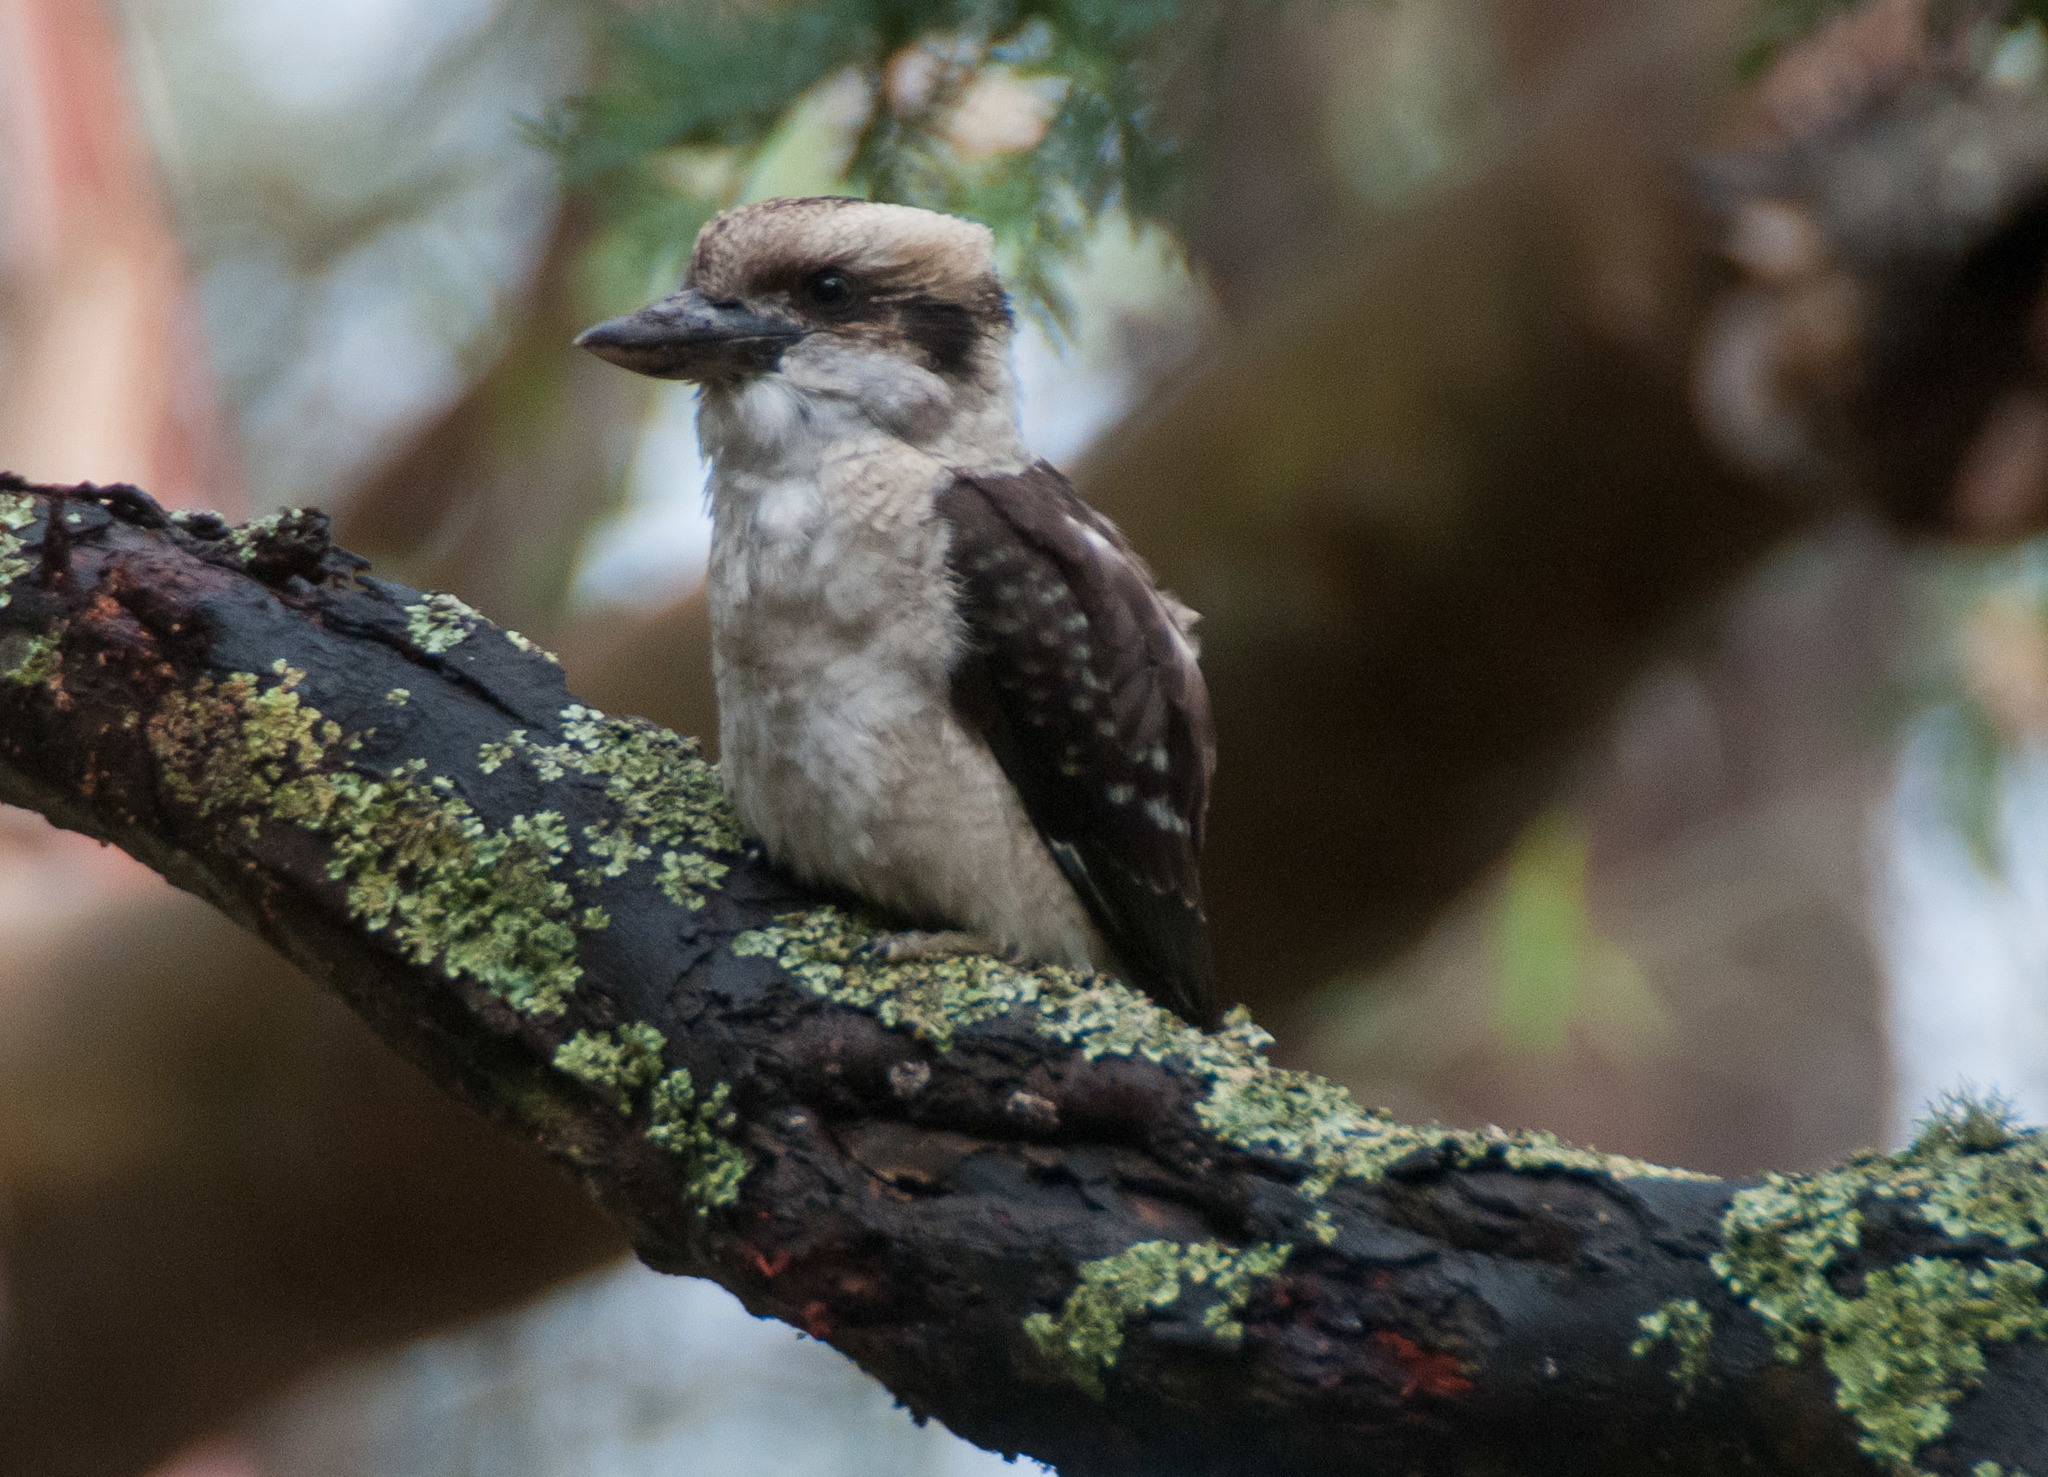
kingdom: Animalia
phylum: Chordata
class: Aves
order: Coraciiformes
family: Alcedinidae
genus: Dacelo
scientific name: Dacelo novaeguineae
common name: Laughing kookaburra
